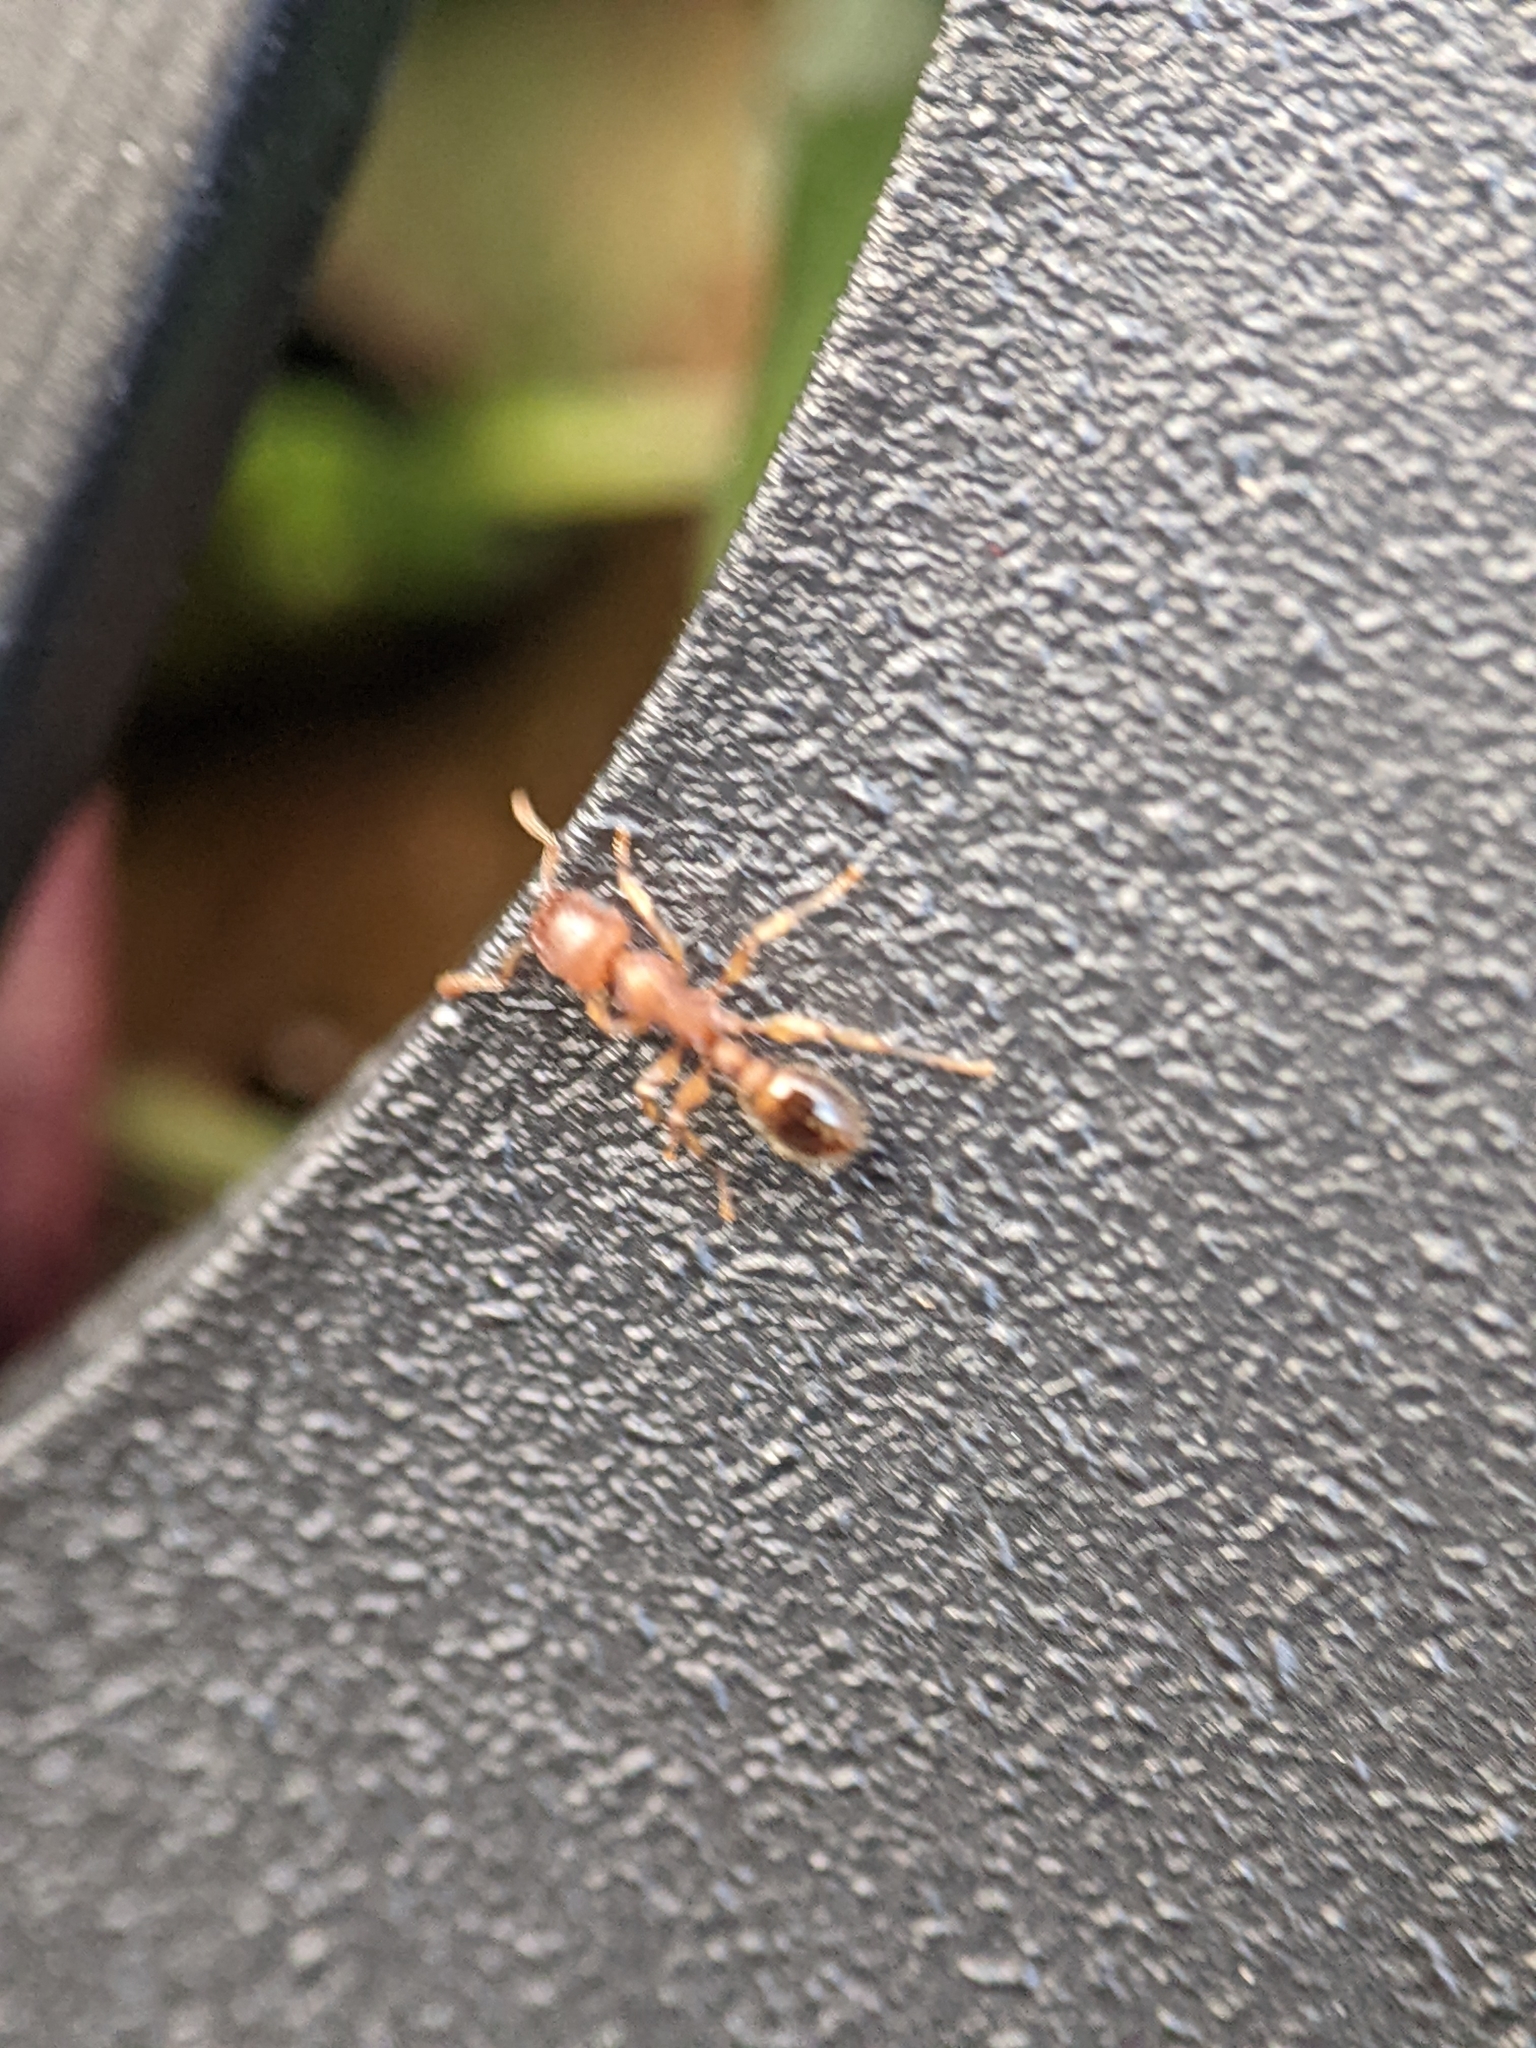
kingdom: Animalia
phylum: Arthropoda
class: Insecta
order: Hymenoptera
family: Formicidae
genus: Tetramorium
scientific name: Tetramorium bicarinatum
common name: Guinea ant
